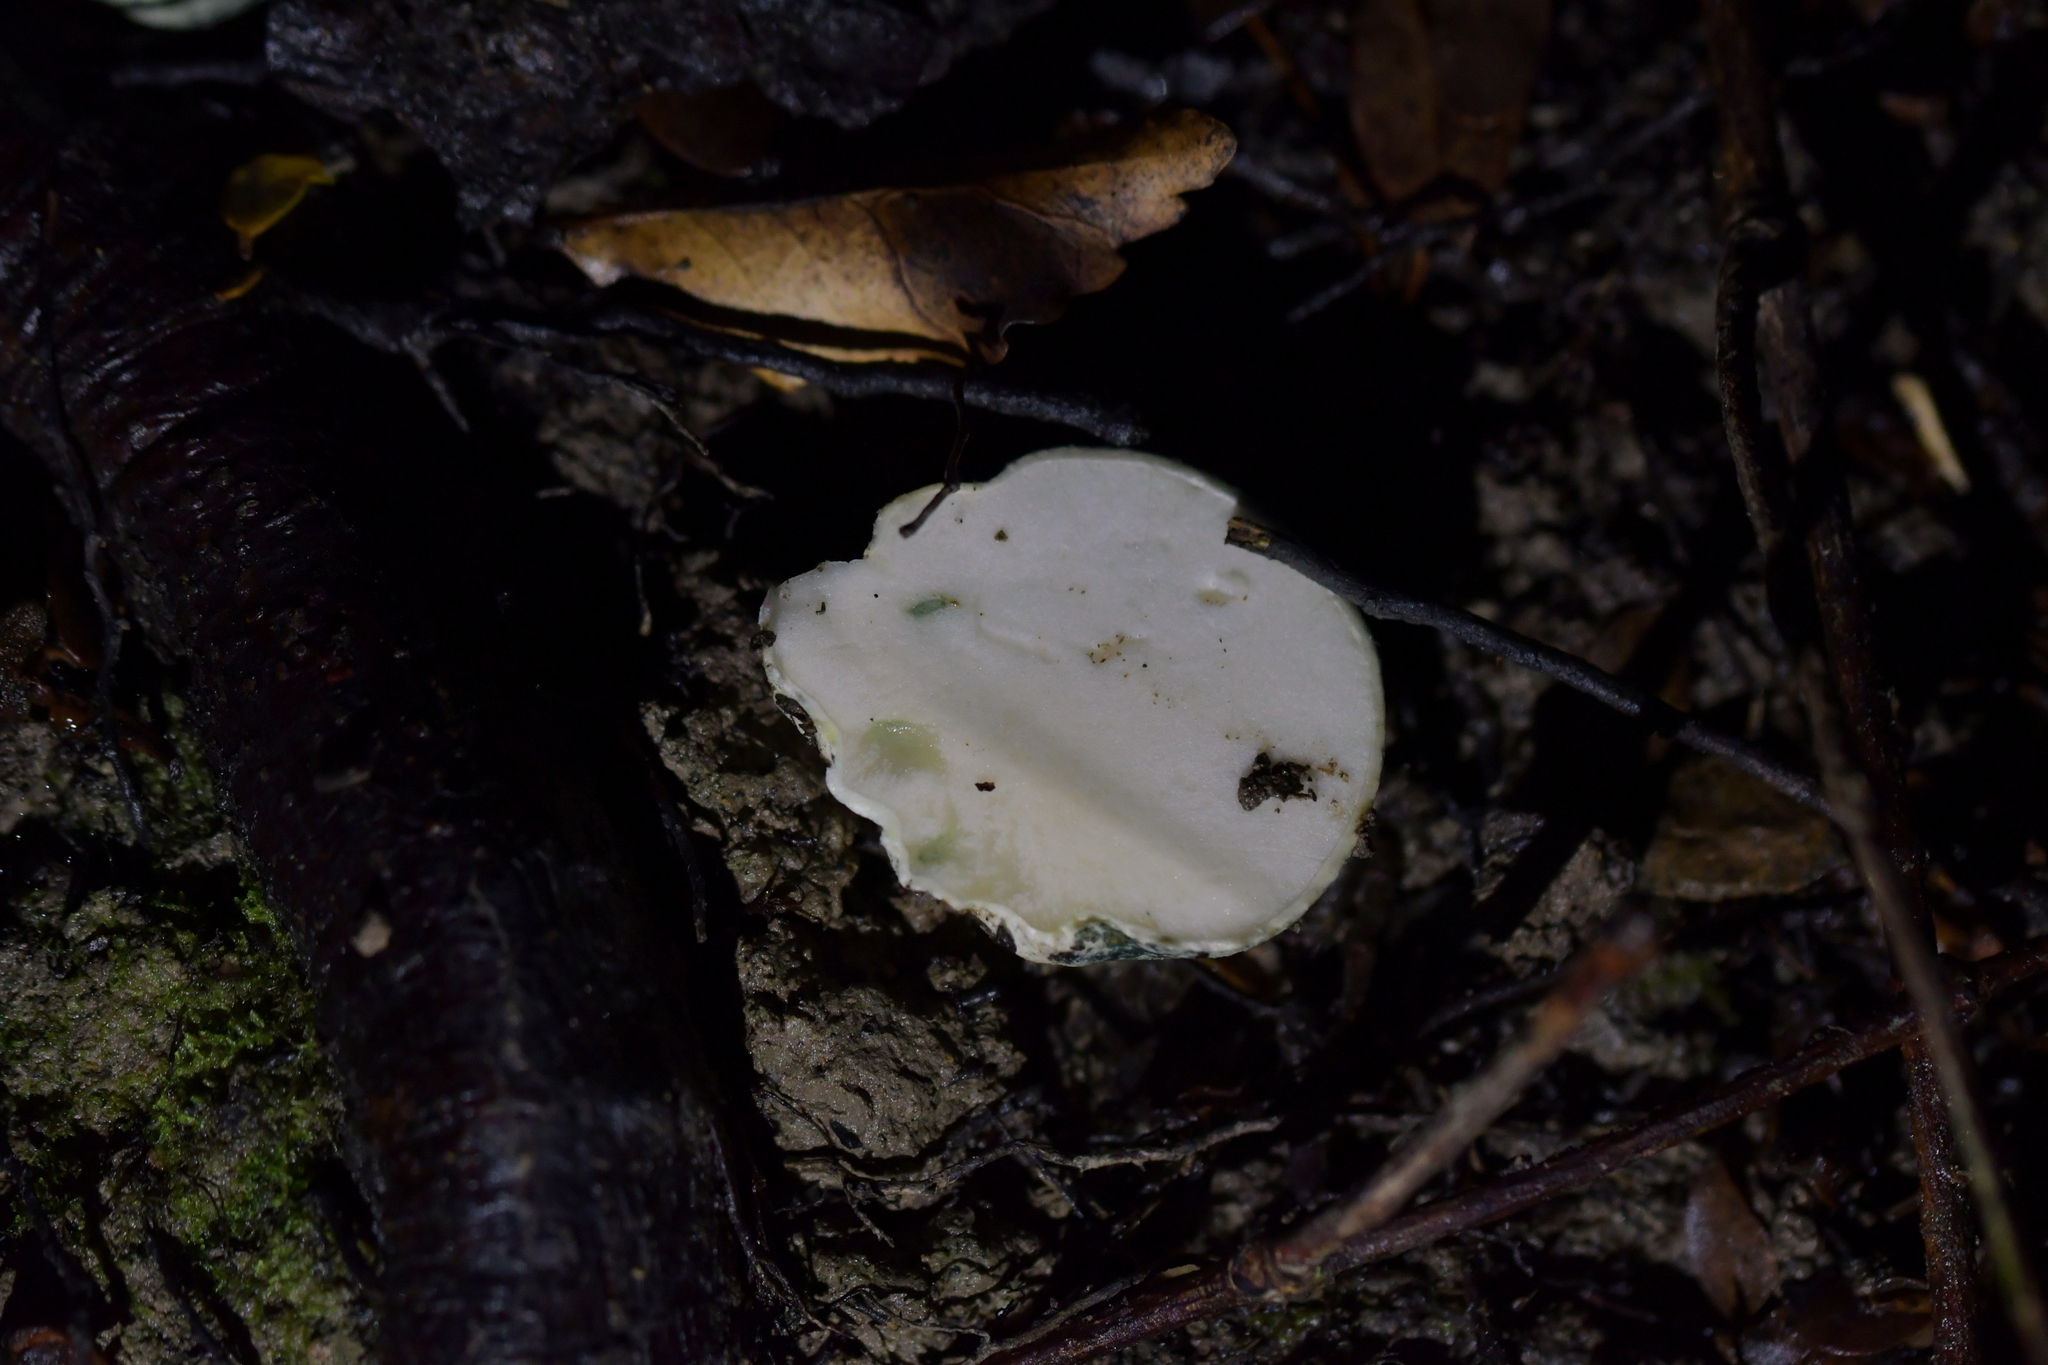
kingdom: Fungi
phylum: Basidiomycota
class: Agaricomycetes
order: Boletales
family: Boletaceae
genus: Leccinum
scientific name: Leccinum pachyderme
